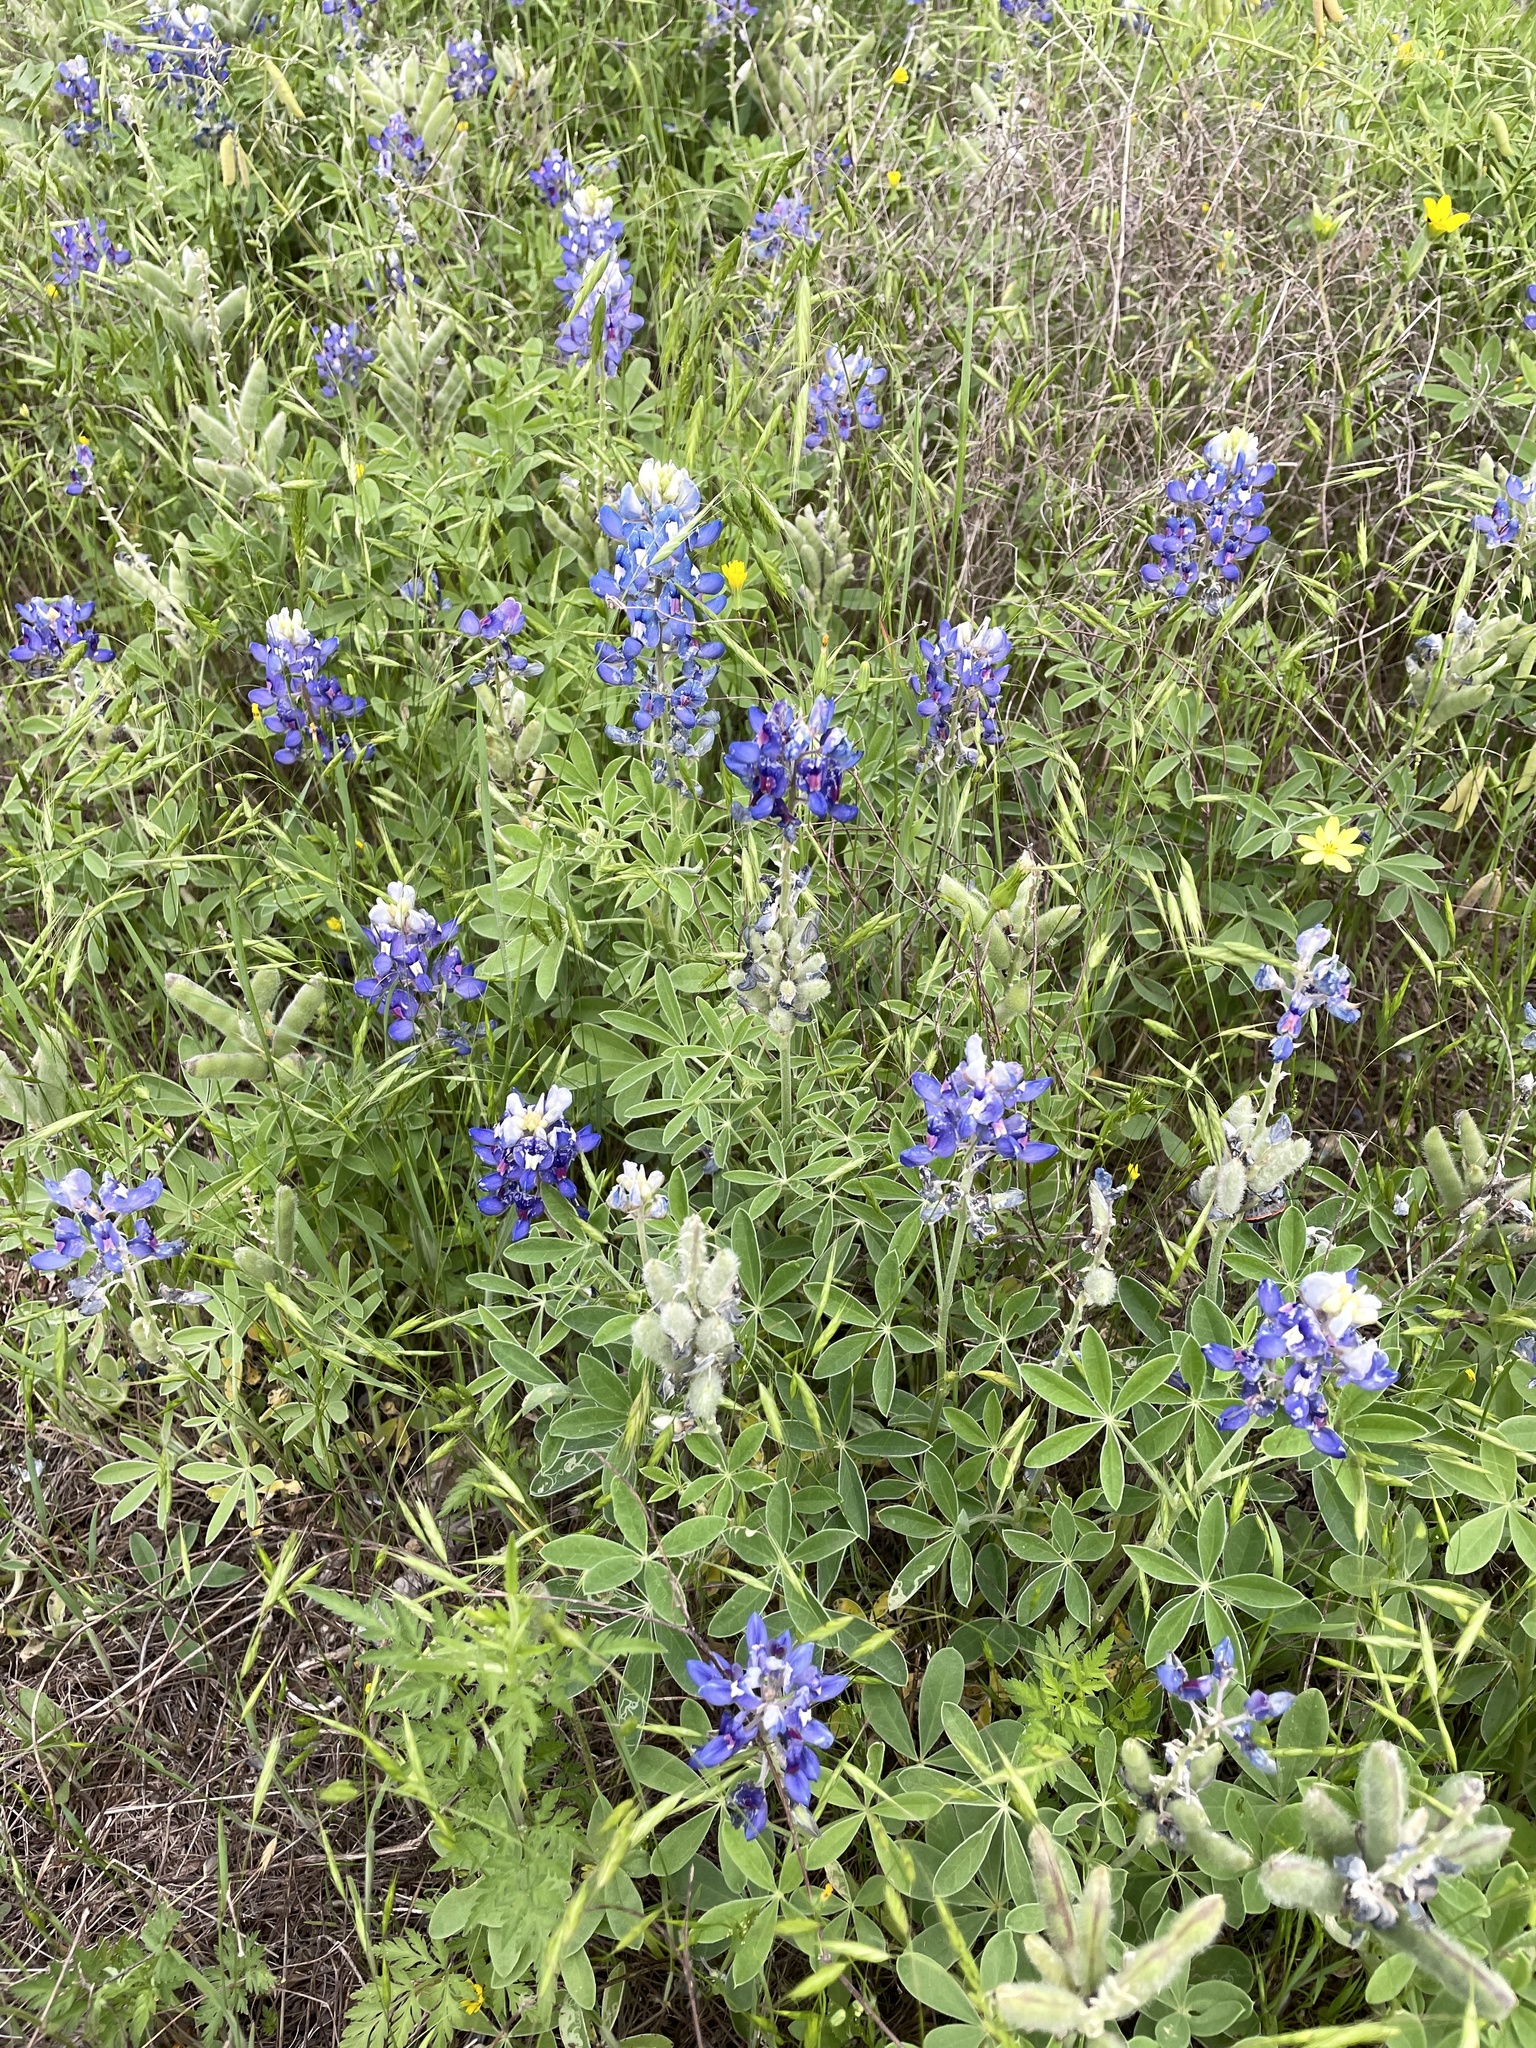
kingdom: Plantae
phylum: Tracheophyta
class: Magnoliopsida
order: Fabales
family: Fabaceae
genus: Lupinus
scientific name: Lupinus texensis
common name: Texas bluebonnet
